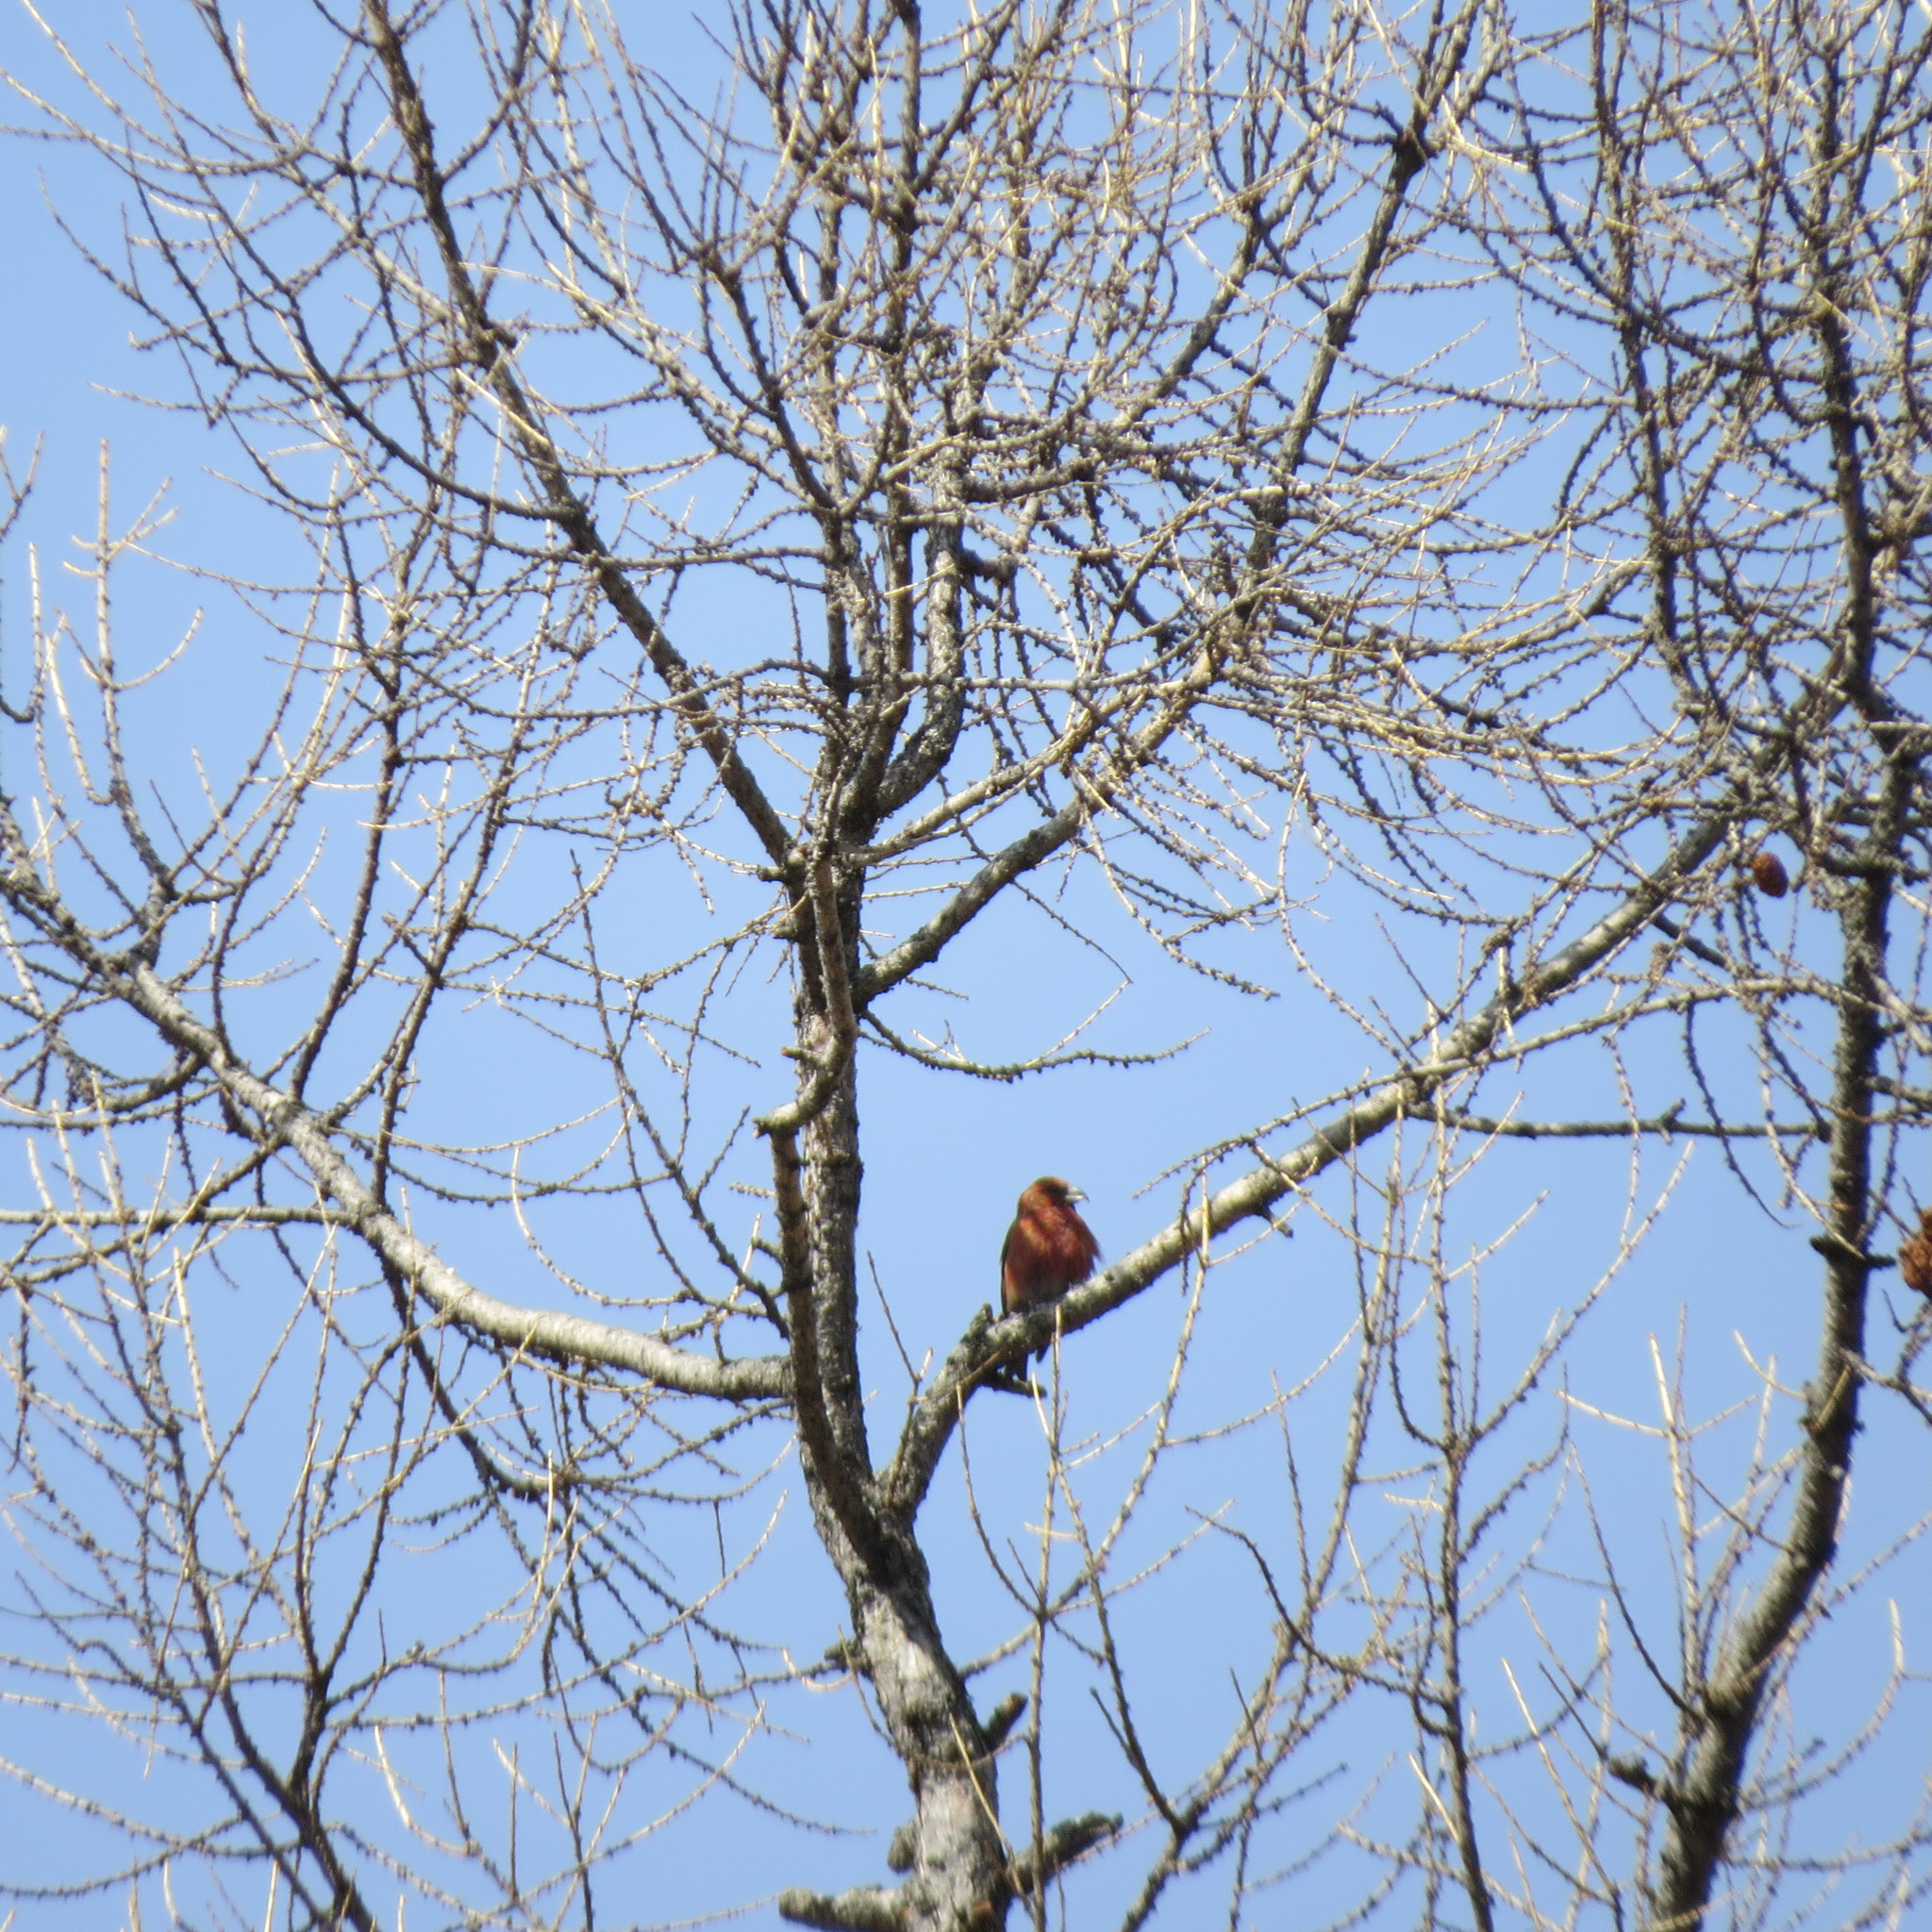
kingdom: Animalia
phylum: Chordata
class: Aves
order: Passeriformes
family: Fringillidae
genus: Loxia
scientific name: Loxia curvirostra
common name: Red crossbill
